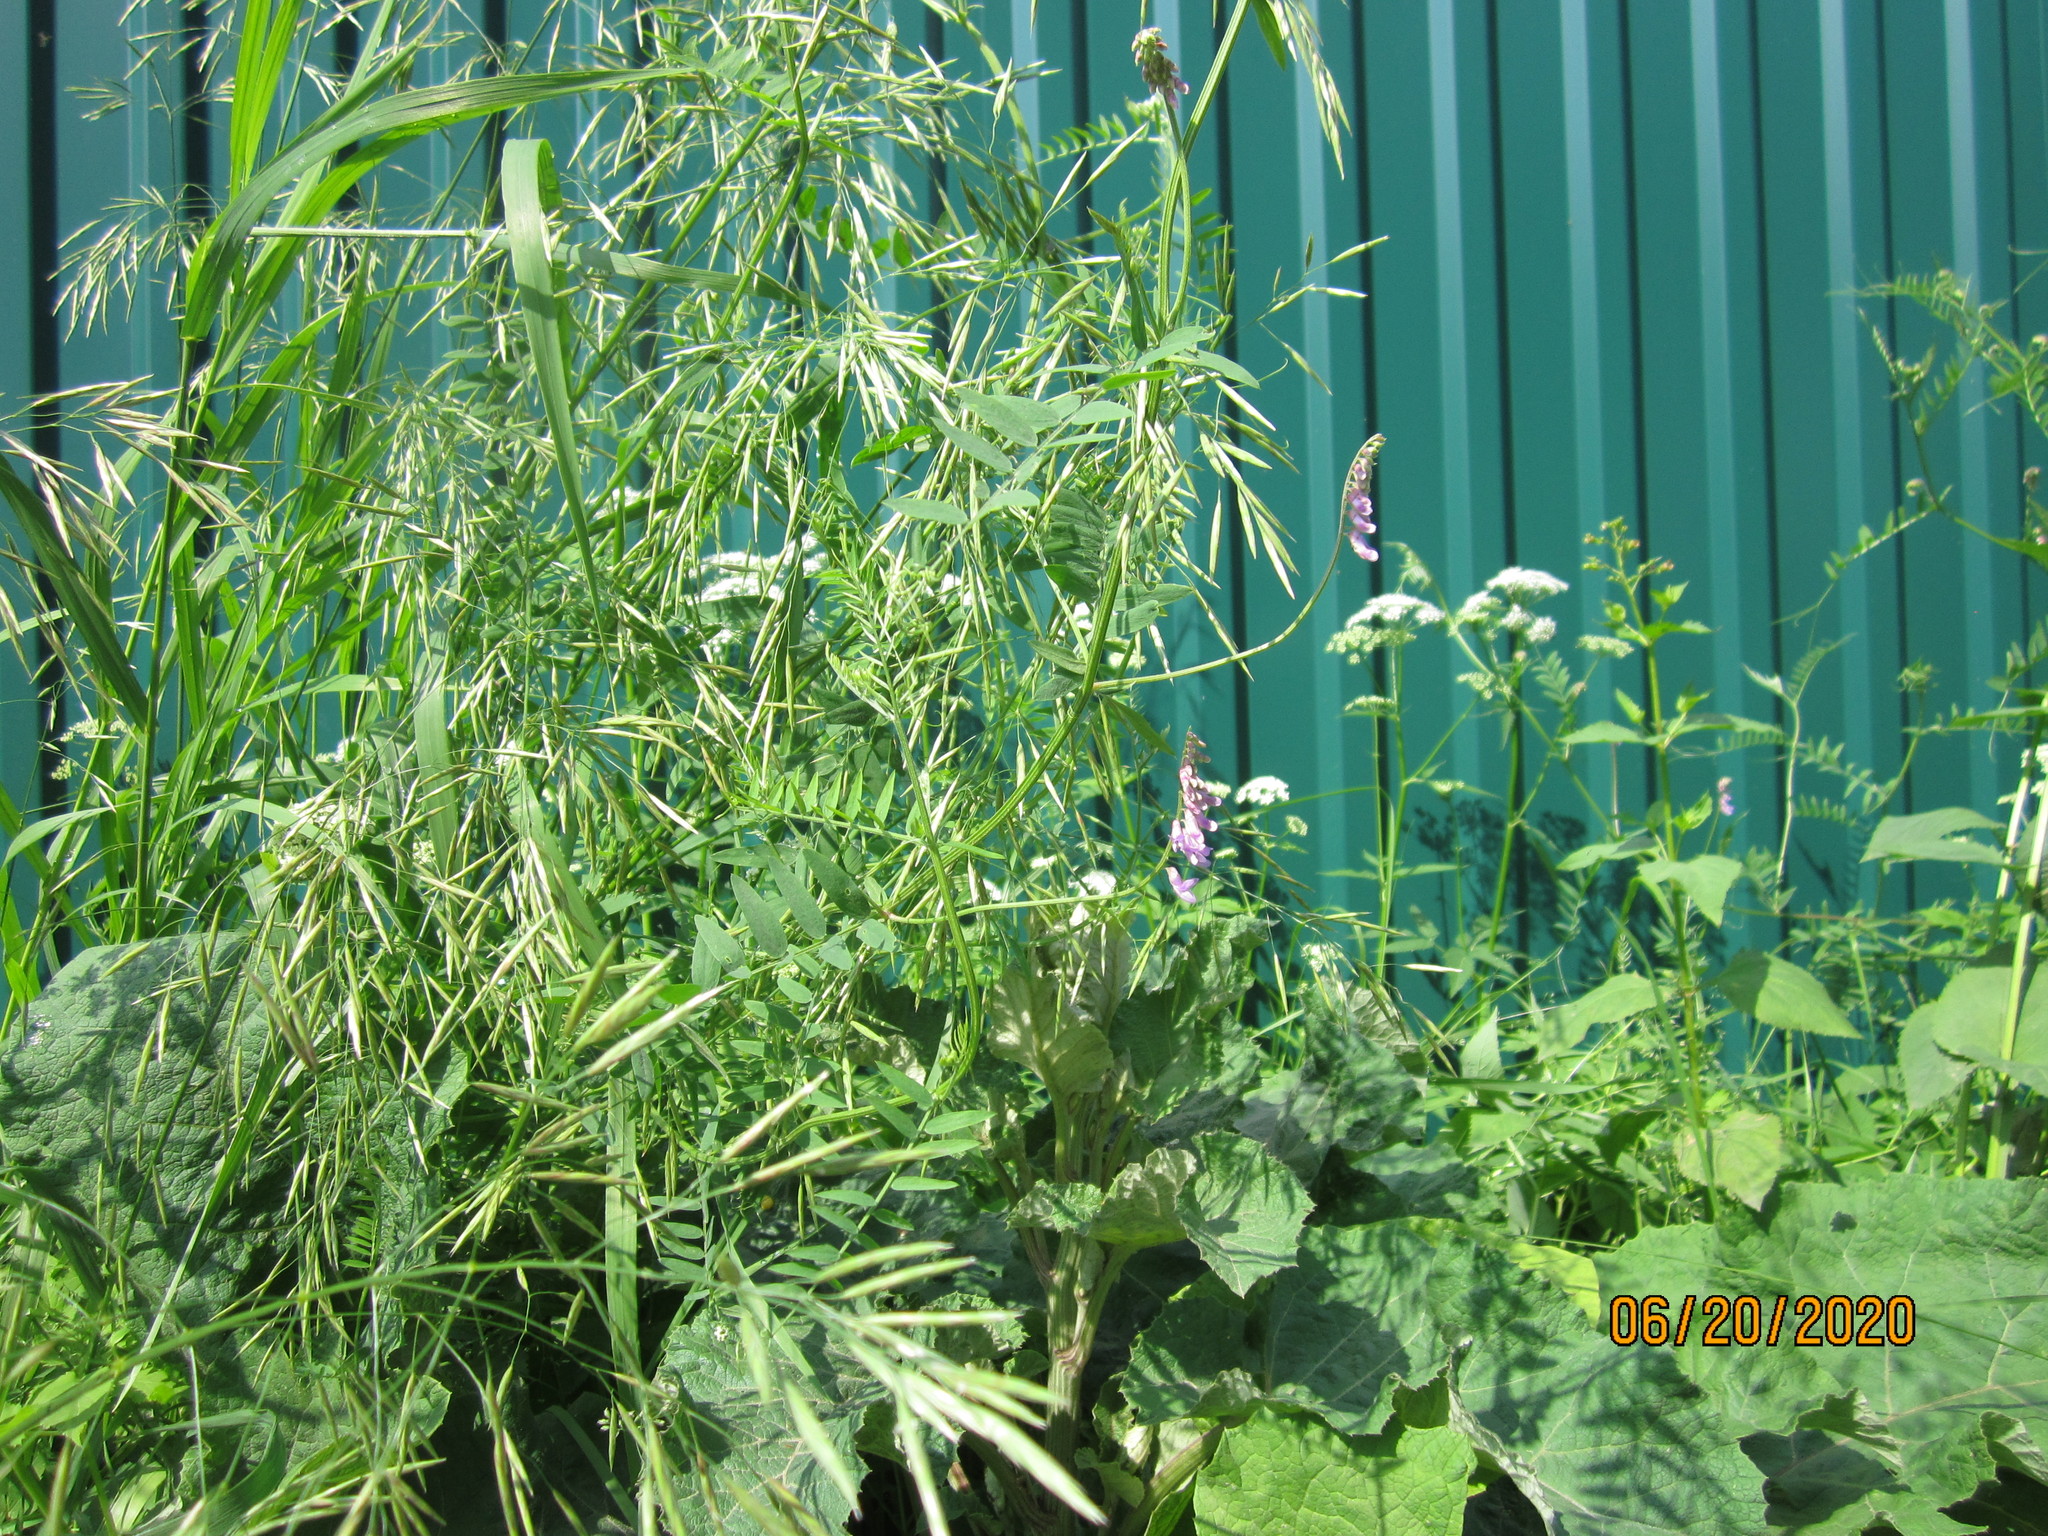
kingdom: Plantae
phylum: Tracheophyta
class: Liliopsida
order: Poales
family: Poaceae
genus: Bromus
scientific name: Bromus inermis
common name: Smooth brome
